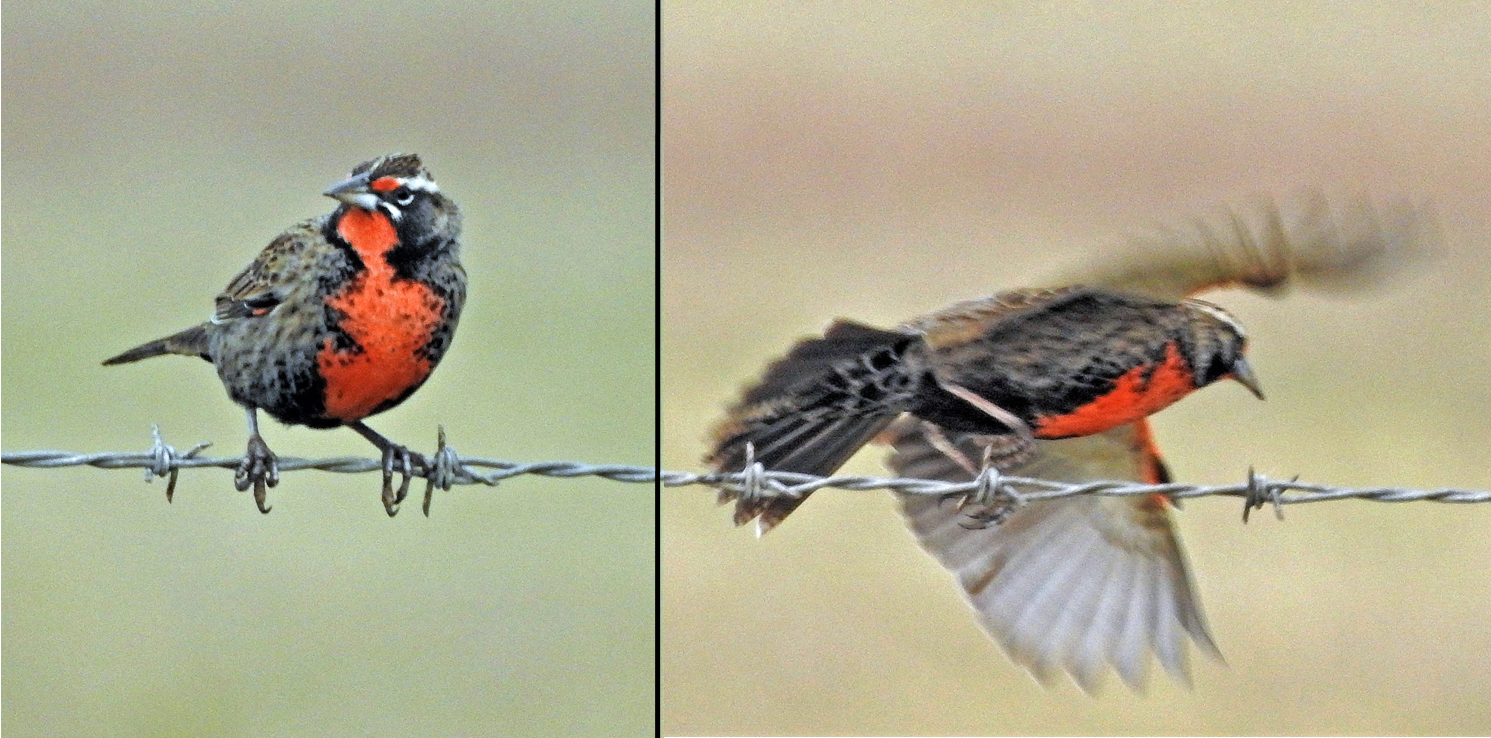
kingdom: Animalia
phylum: Chordata
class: Aves
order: Passeriformes
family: Icteridae
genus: Sturnella
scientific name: Sturnella loyca
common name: Long-tailed meadowlark
